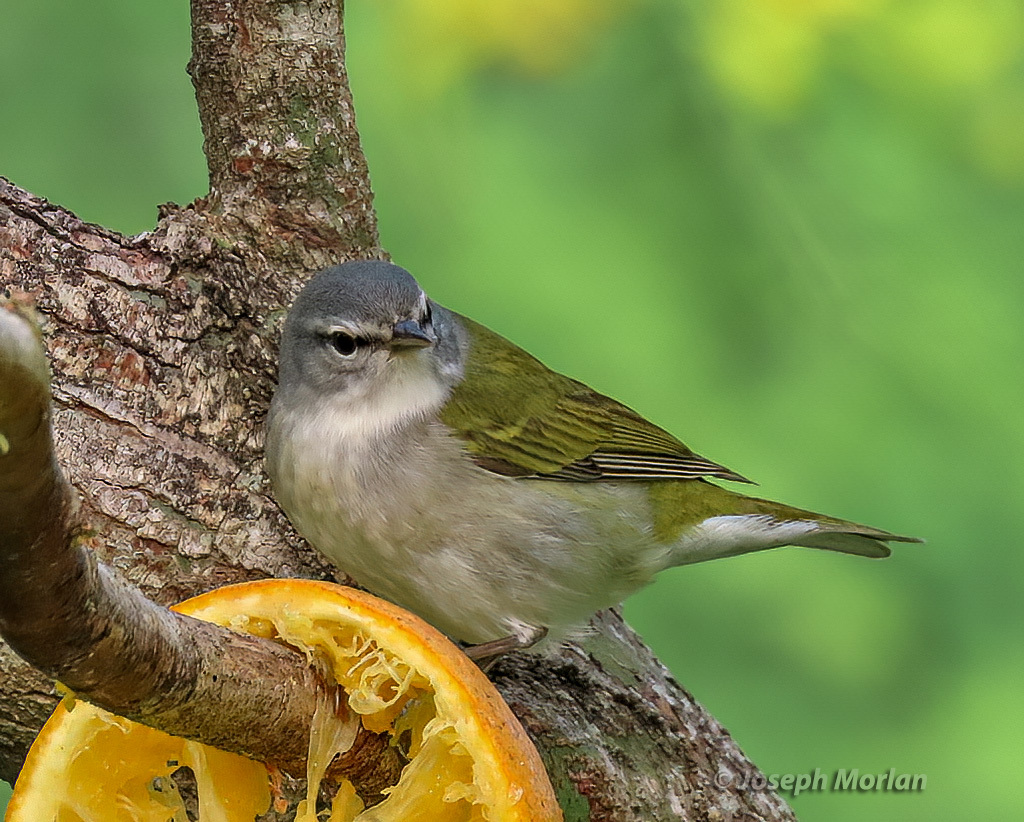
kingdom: Animalia
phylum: Chordata
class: Aves
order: Passeriformes
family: Parulidae
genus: Leiothlypis
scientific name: Leiothlypis peregrina
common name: Tennessee warbler
